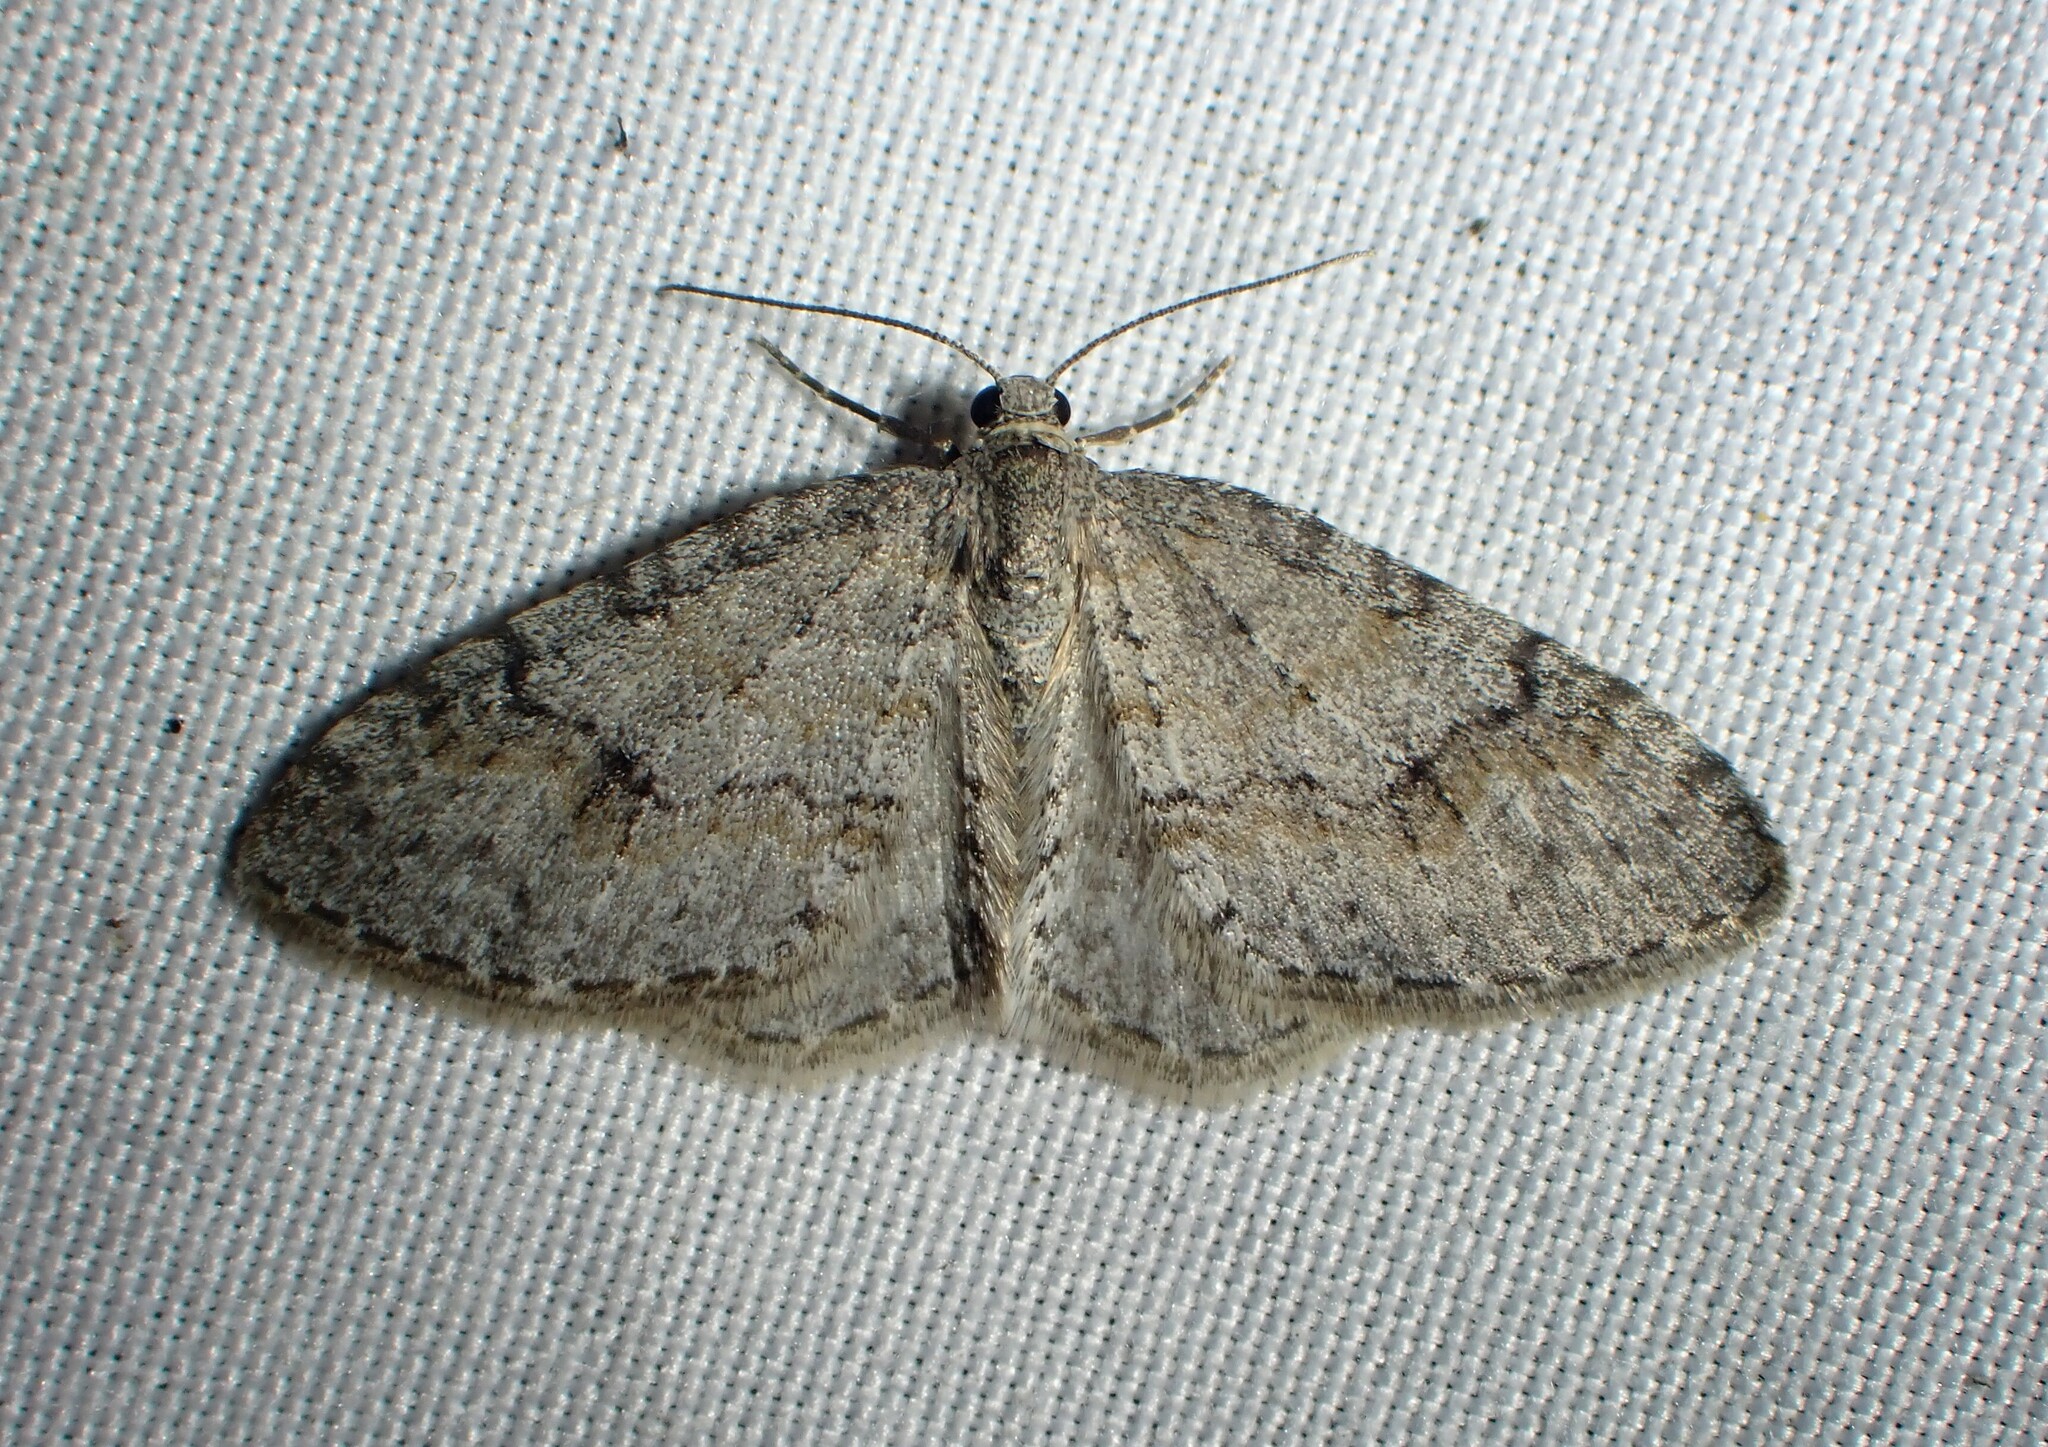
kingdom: Animalia
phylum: Arthropoda
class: Insecta
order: Lepidoptera
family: Geometridae
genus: Venusia
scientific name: Venusia comptaria
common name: Brown-shaded carpet
